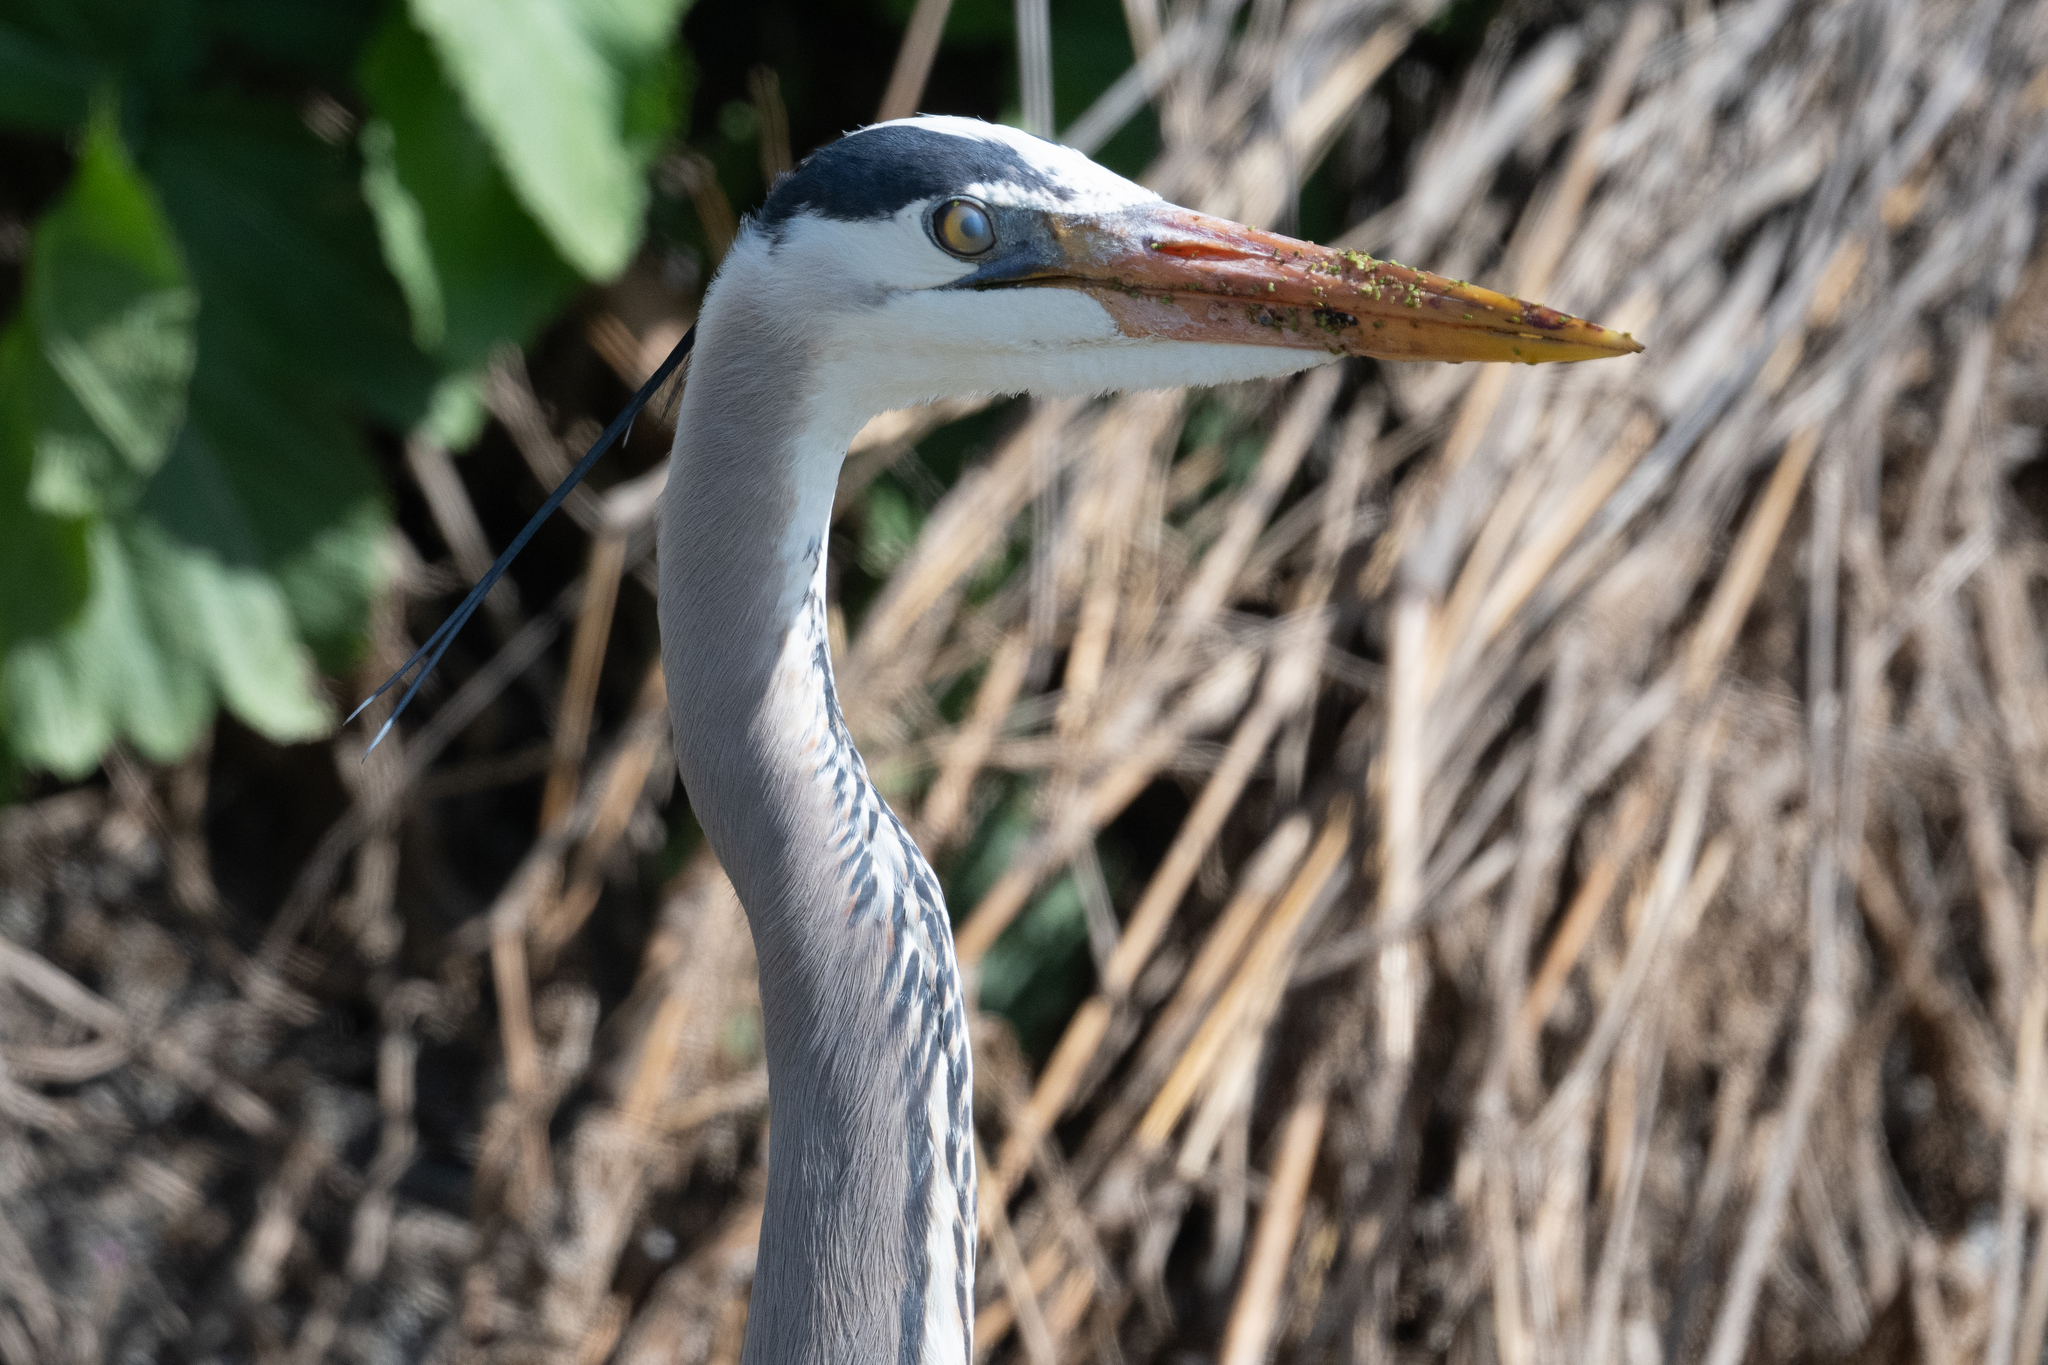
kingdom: Animalia
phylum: Chordata
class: Aves
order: Pelecaniformes
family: Ardeidae
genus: Ardea
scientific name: Ardea herodias
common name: Great blue heron
